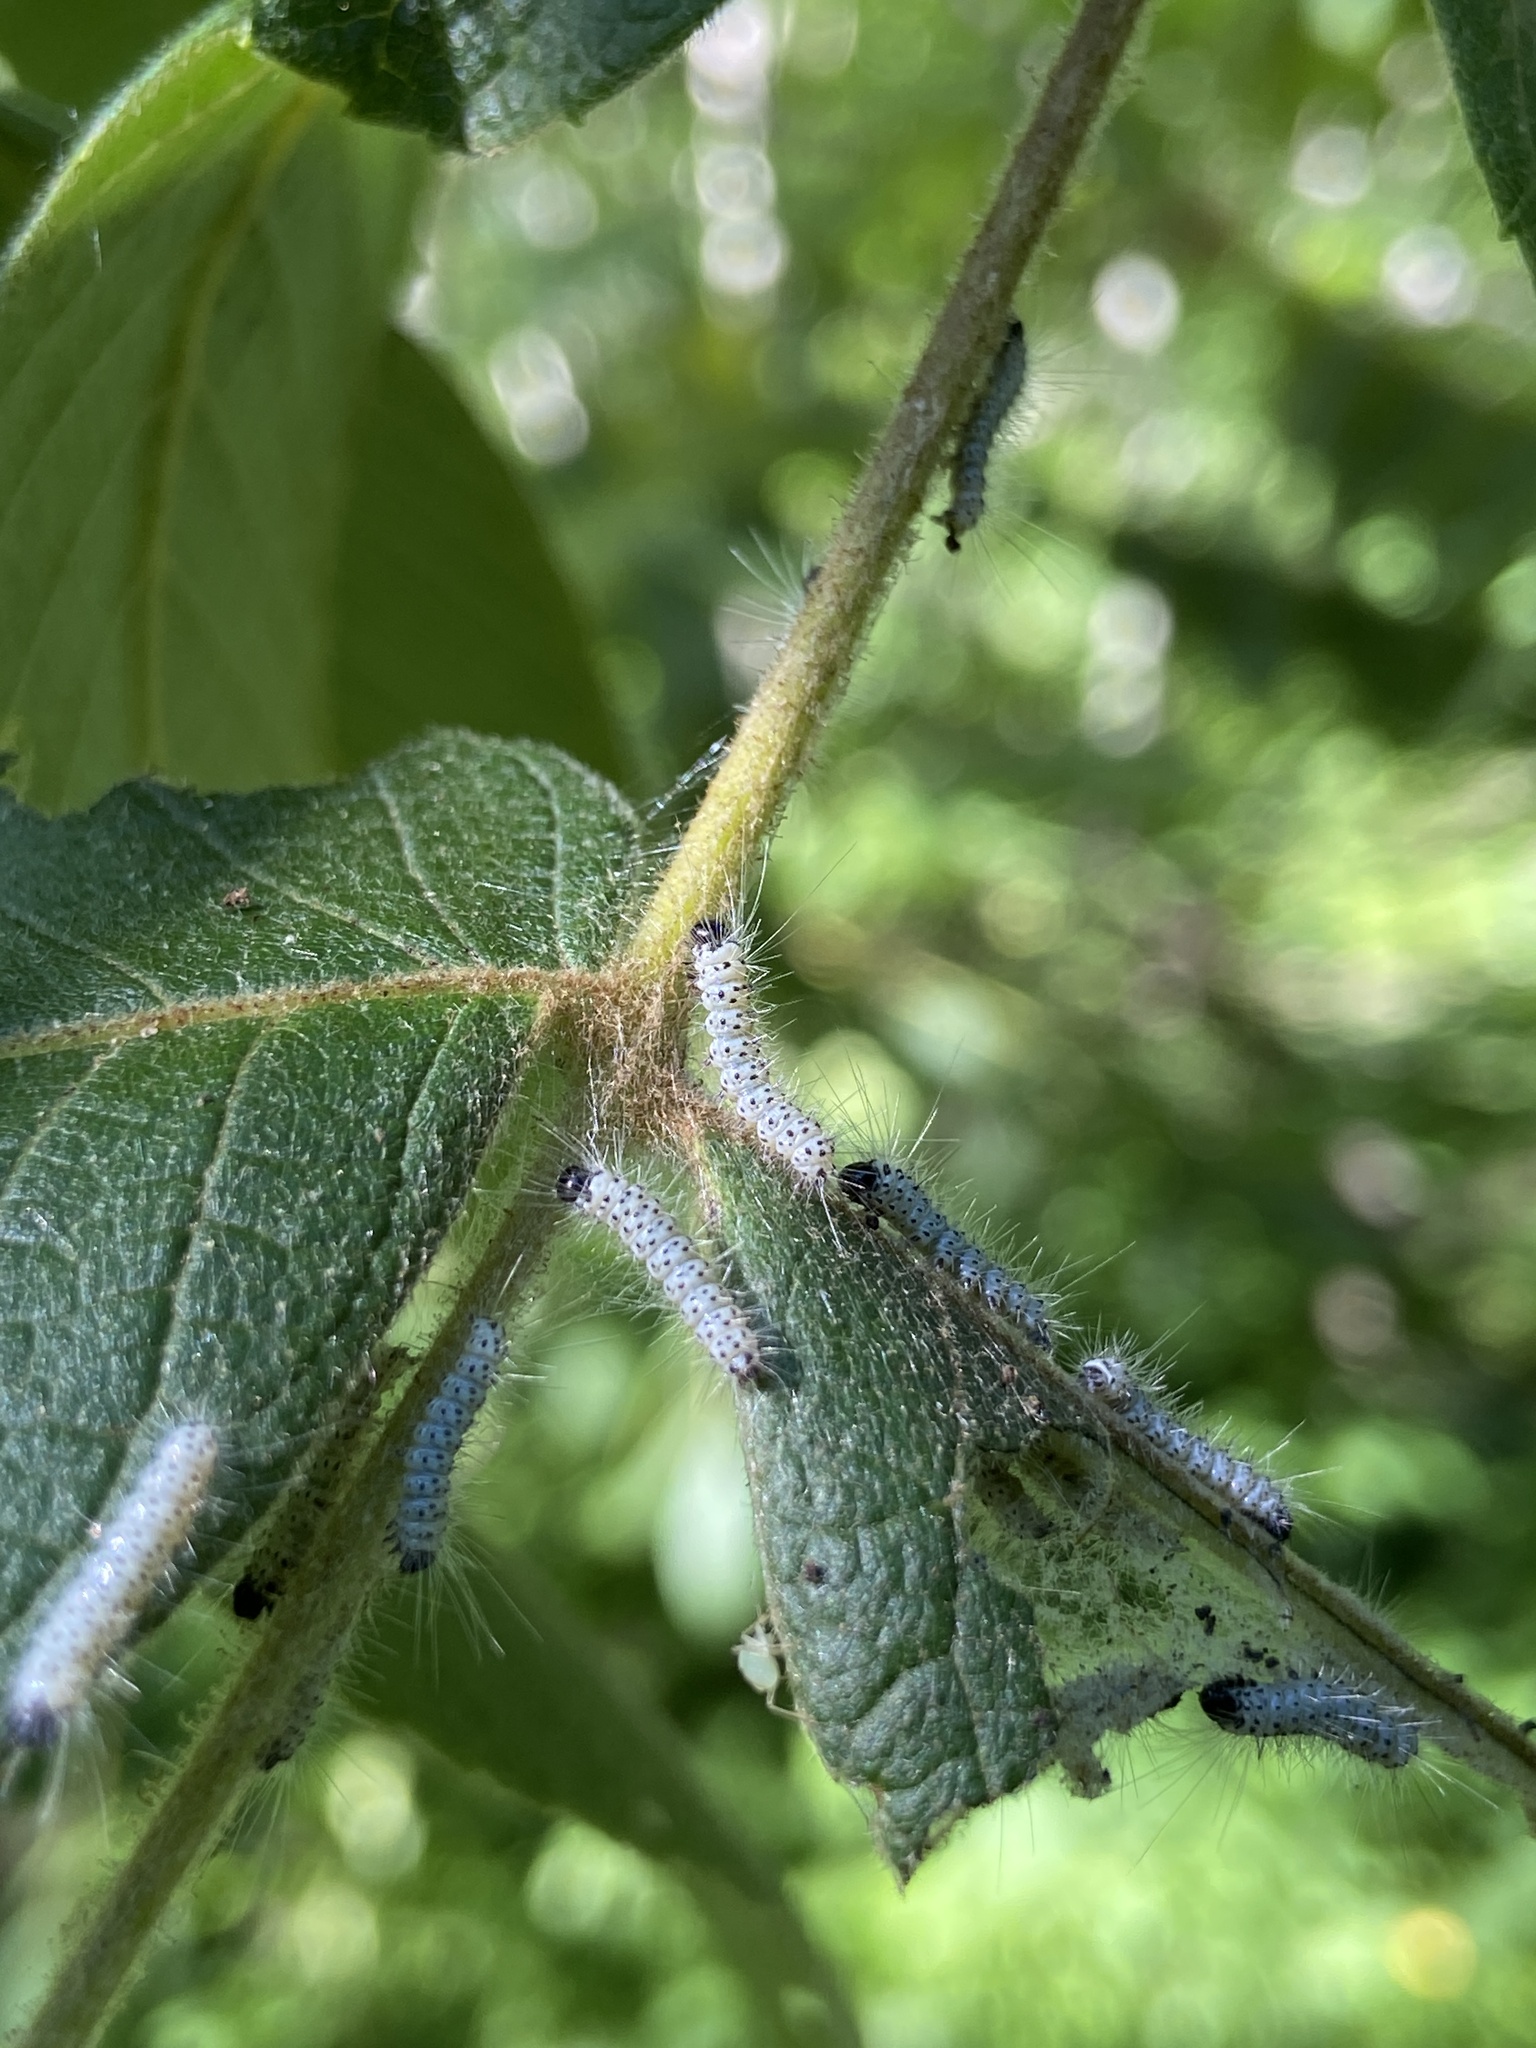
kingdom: Animalia
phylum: Arthropoda
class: Insecta
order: Lepidoptera
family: Erebidae
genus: Lophocampa
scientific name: Lophocampa caryae
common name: Hickory tussock moth
